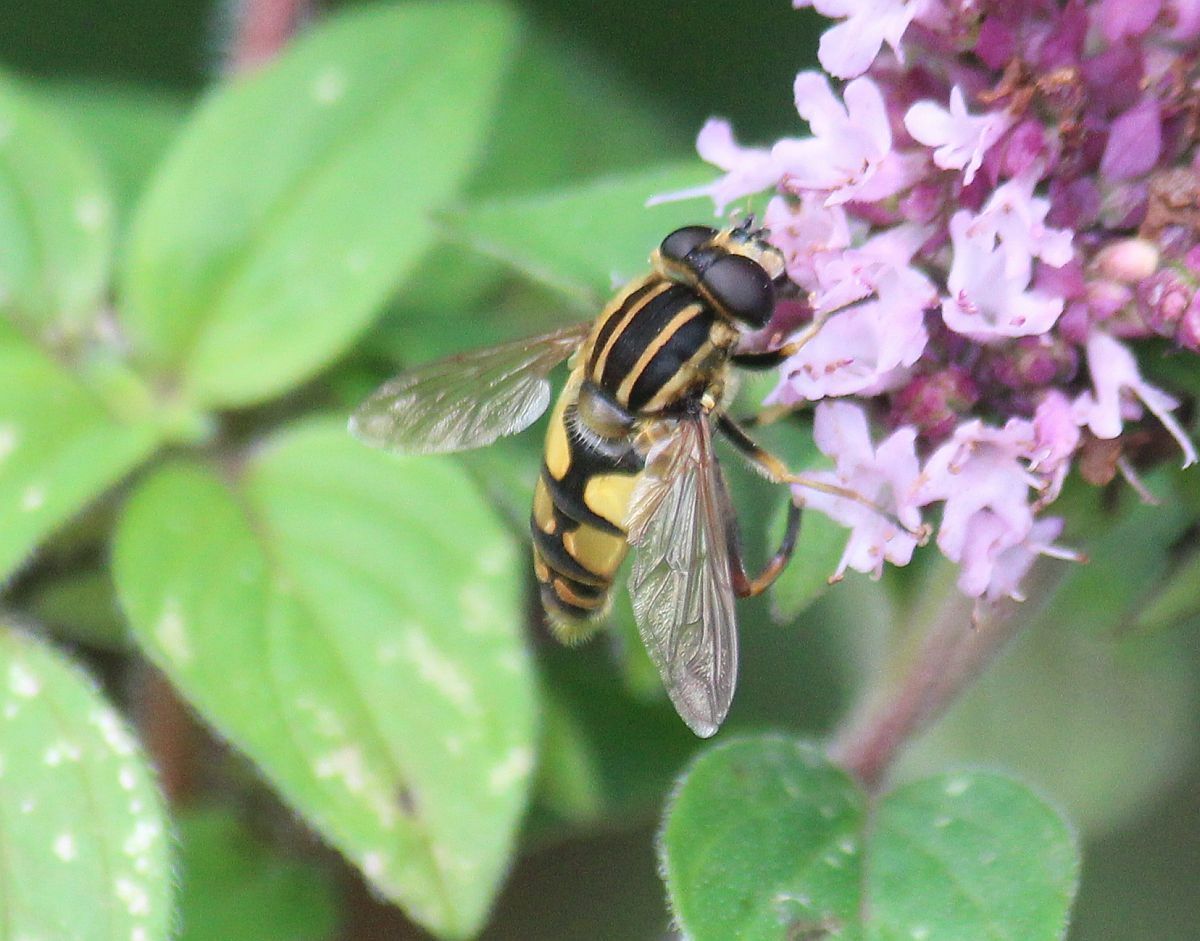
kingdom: Animalia
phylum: Arthropoda
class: Insecta
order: Diptera
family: Syrphidae
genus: Helophilus
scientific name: Helophilus pendulus
